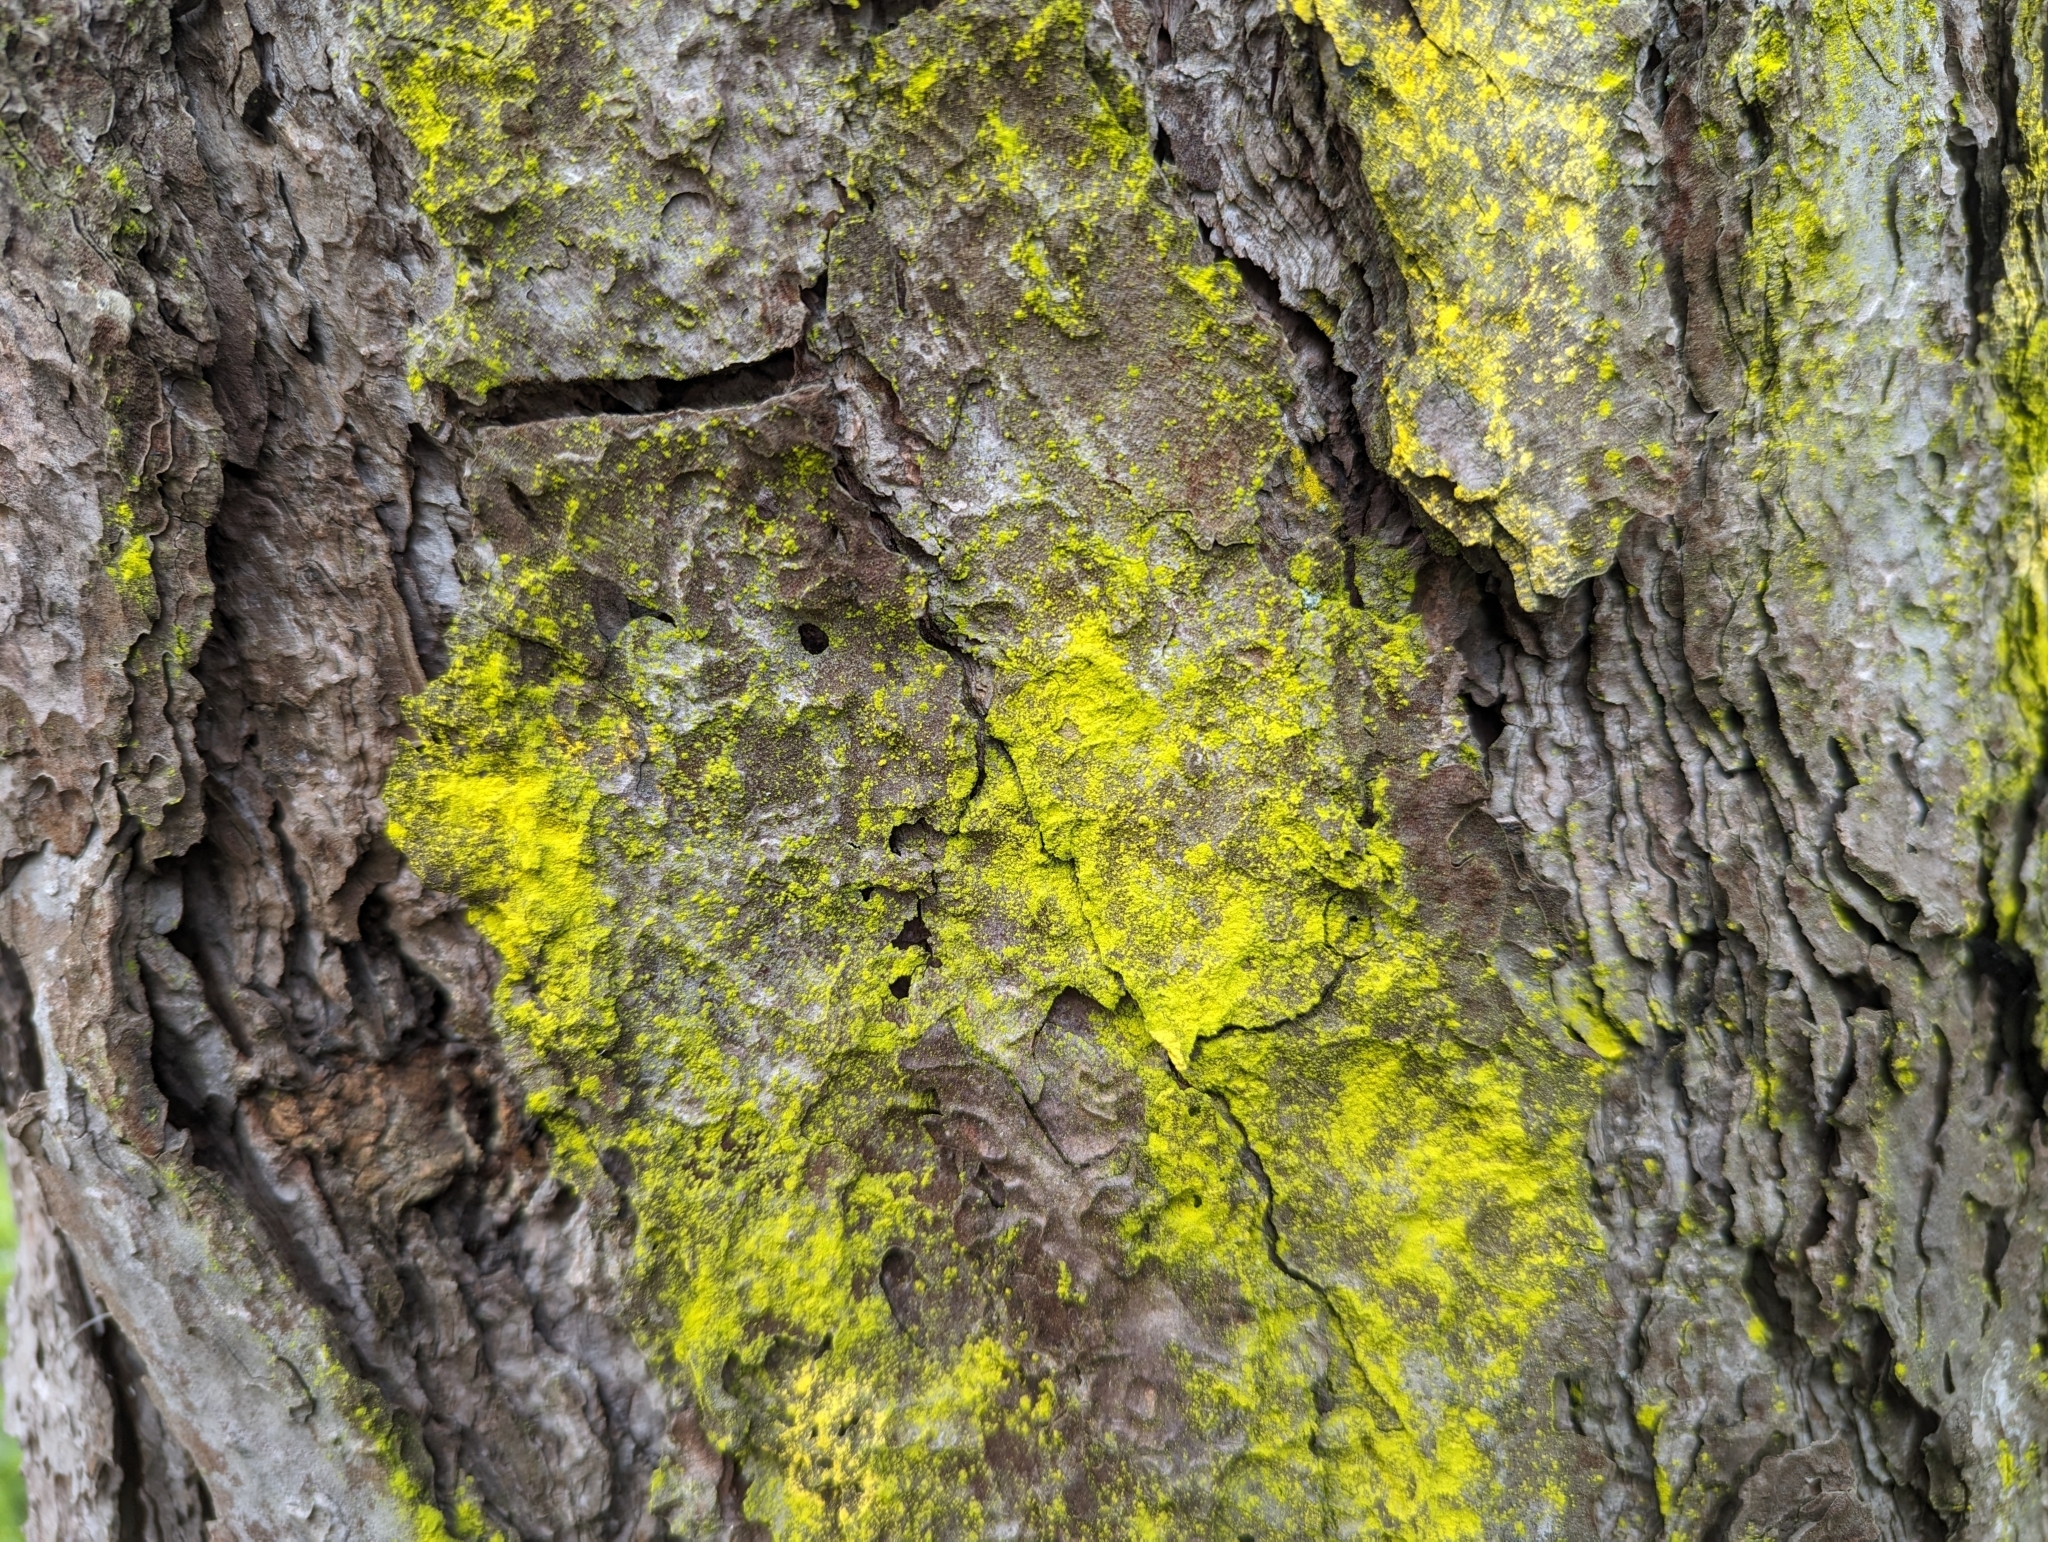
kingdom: Fungi
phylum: Ascomycota
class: Arthoniomycetes
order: Arthoniales
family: Chrysotrichaceae
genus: Chrysothrix
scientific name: Chrysothrix candelaris
